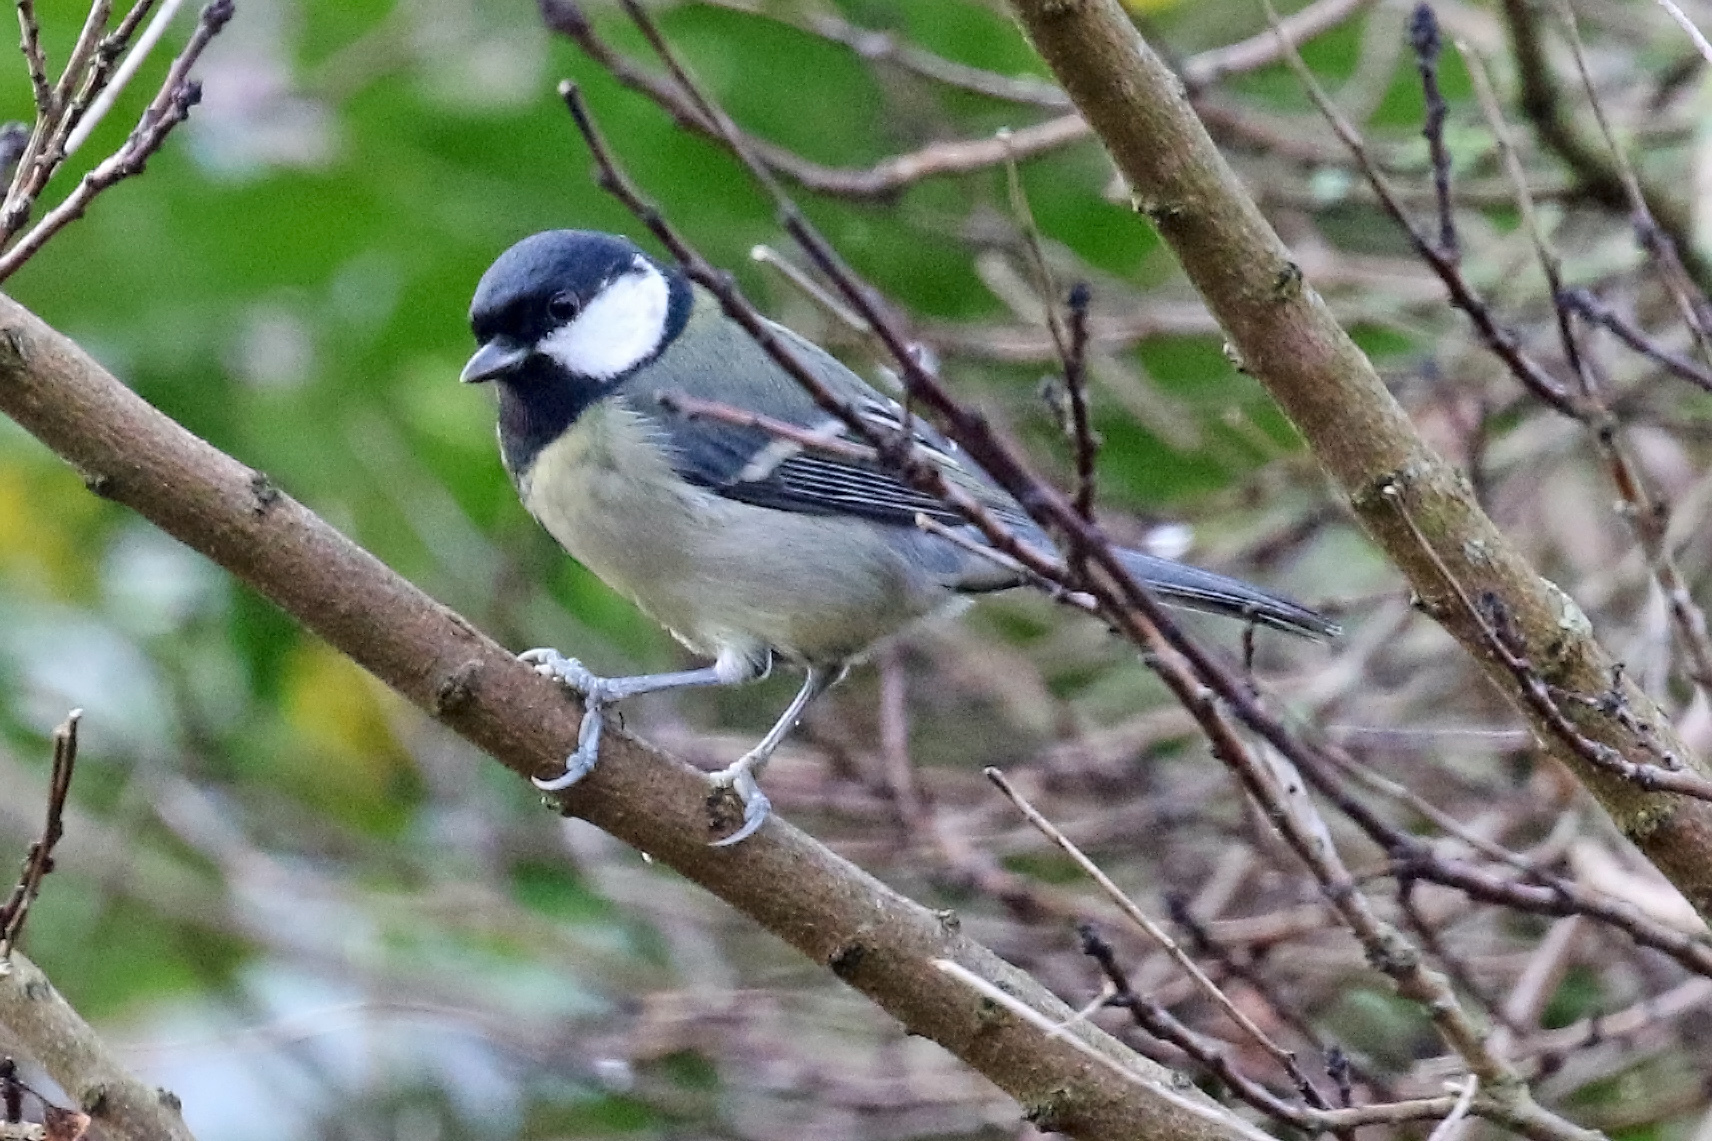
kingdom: Animalia
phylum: Chordata
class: Aves
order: Passeriformes
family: Paridae
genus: Parus
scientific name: Parus major
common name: Great tit
